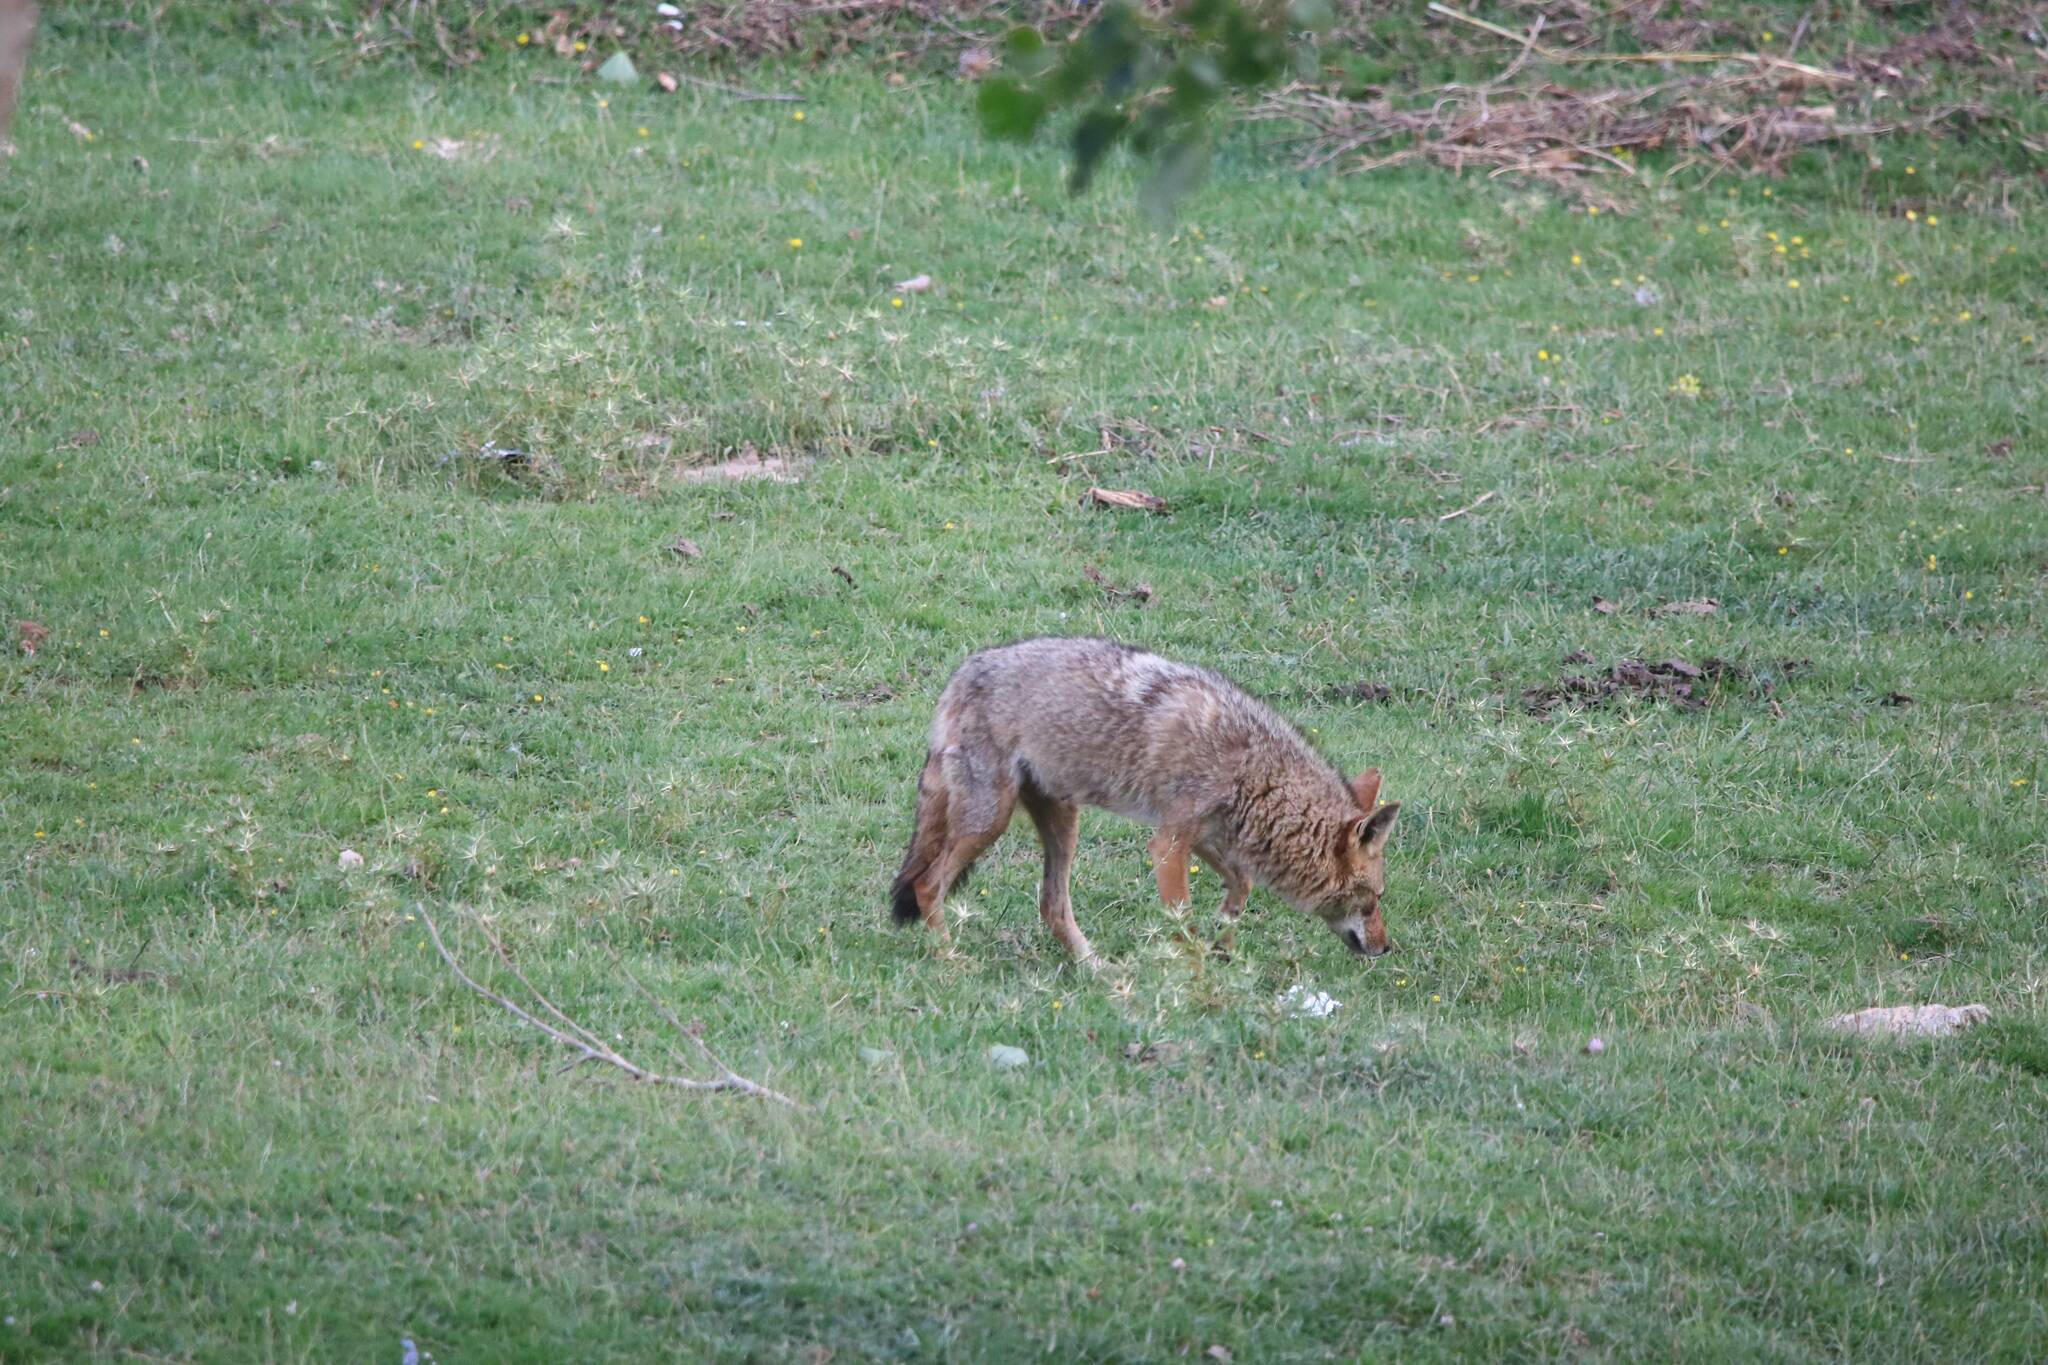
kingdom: Animalia
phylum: Chordata
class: Mammalia
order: Carnivora
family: Canidae
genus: Canis
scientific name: Canis lupaster
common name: African golden wolf
